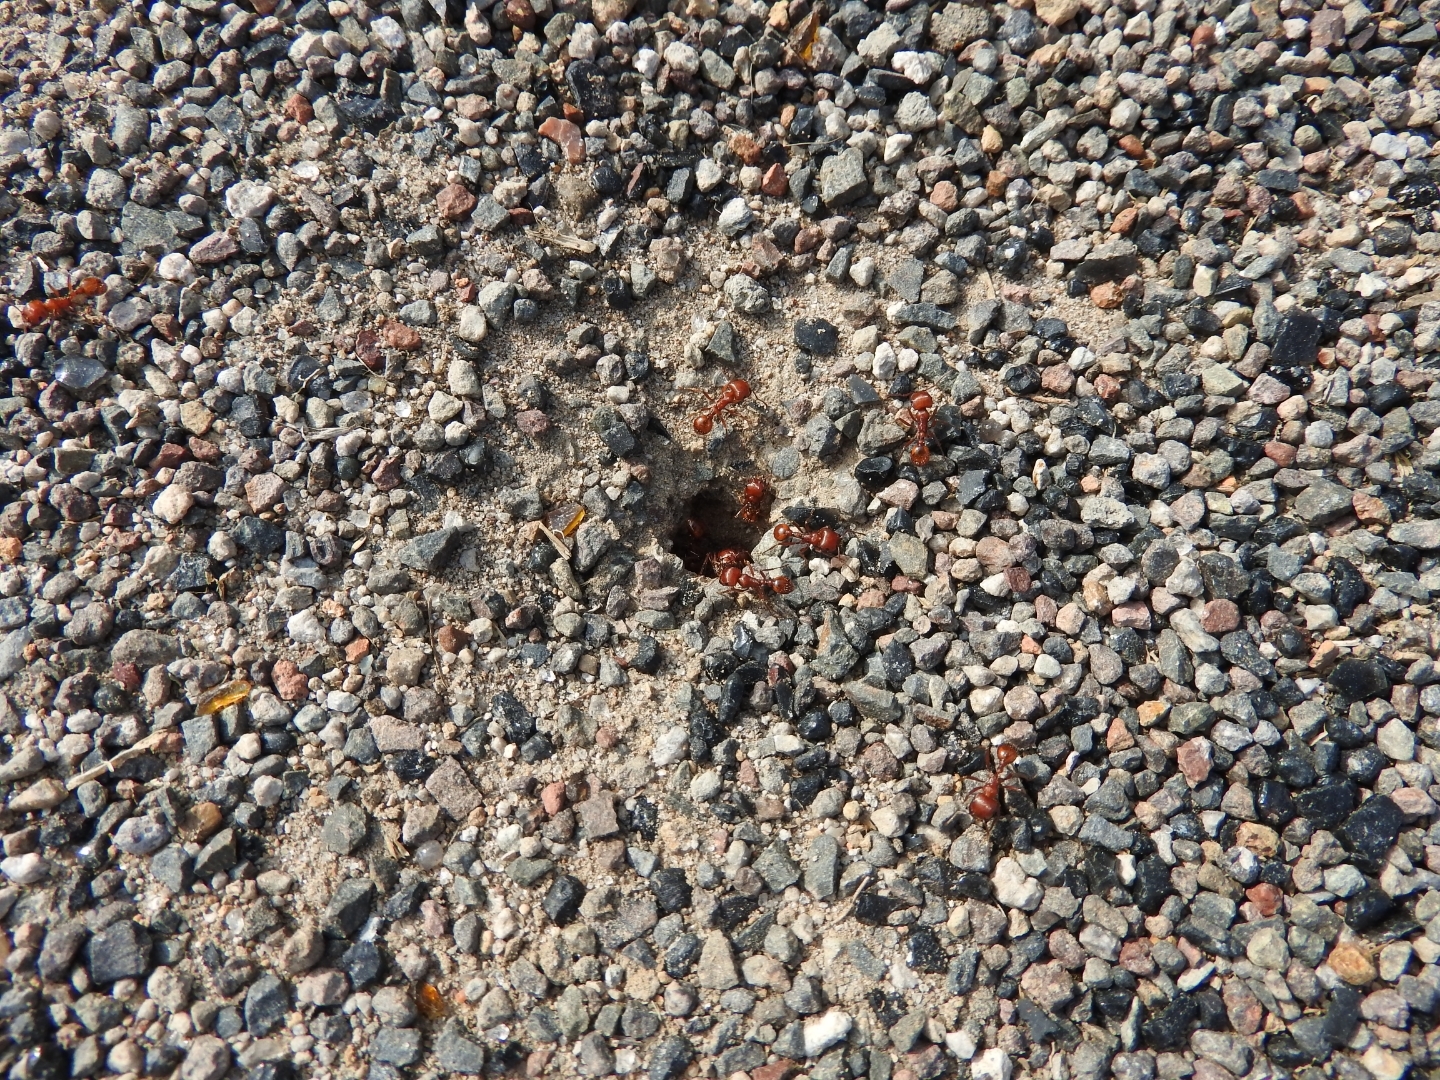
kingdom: Animalia
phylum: Arthropoda
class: Insecta
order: Hymenoptera
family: Formicidae
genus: Pogonomyrmex
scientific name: Pogonomyrmex barbatus
